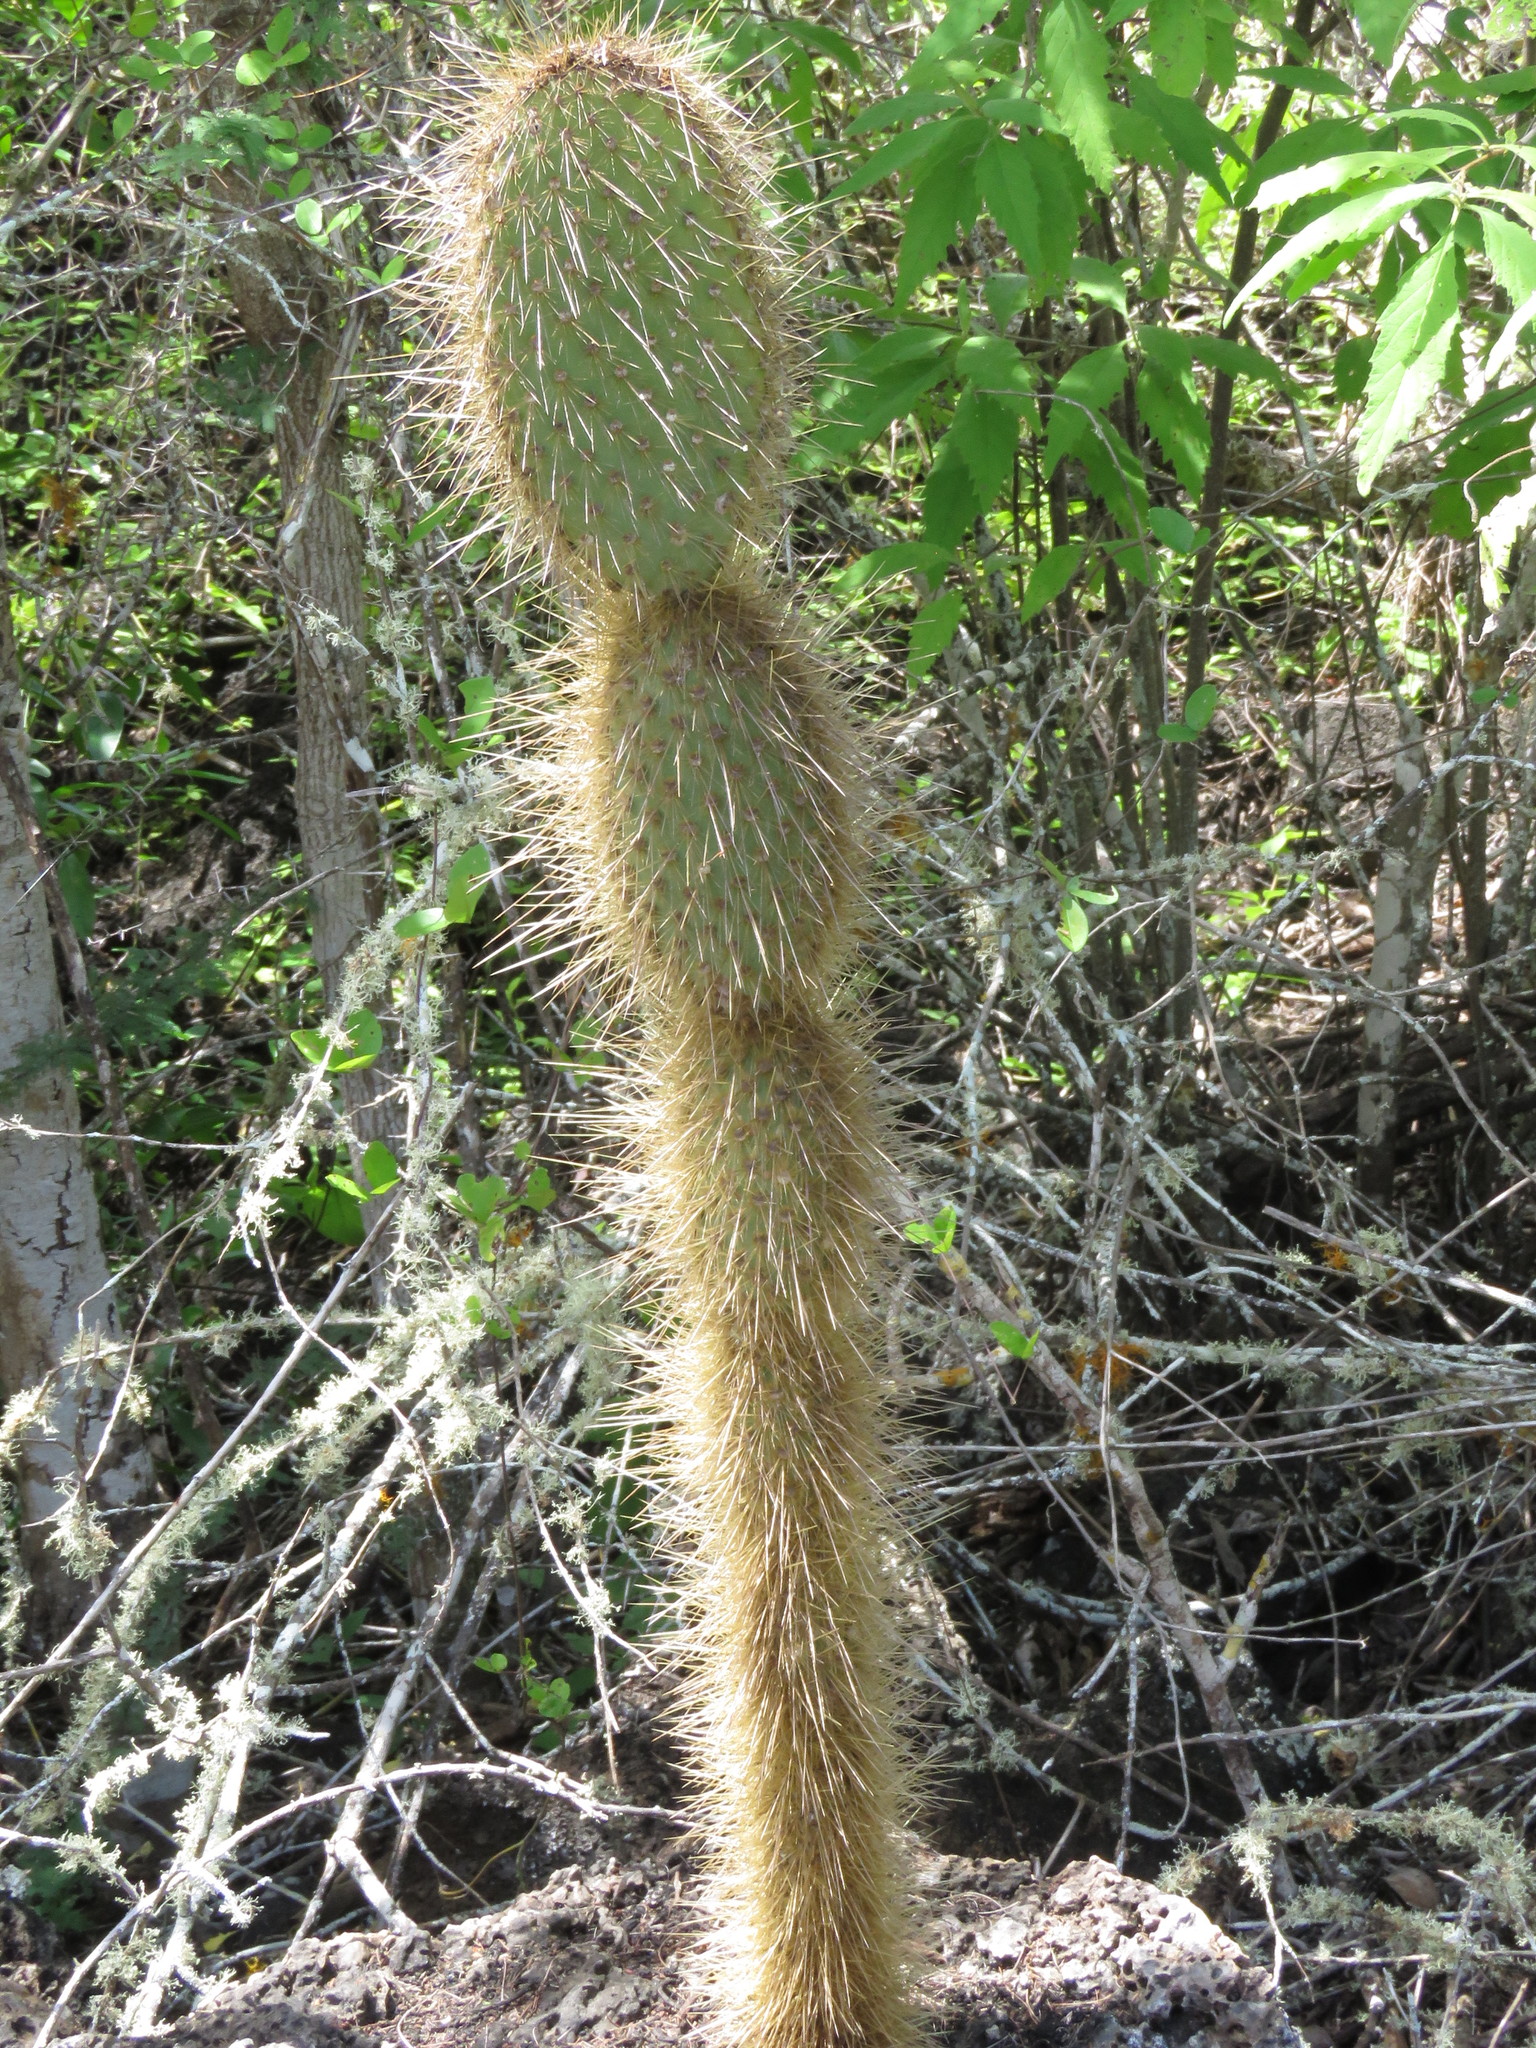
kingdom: Plantae
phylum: Tracheophyta
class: Magnoliopsida
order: Caryophyllales
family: Cactaceae
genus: Opuntia
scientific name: Opuntia galapageia
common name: Galápagos prickly pear
